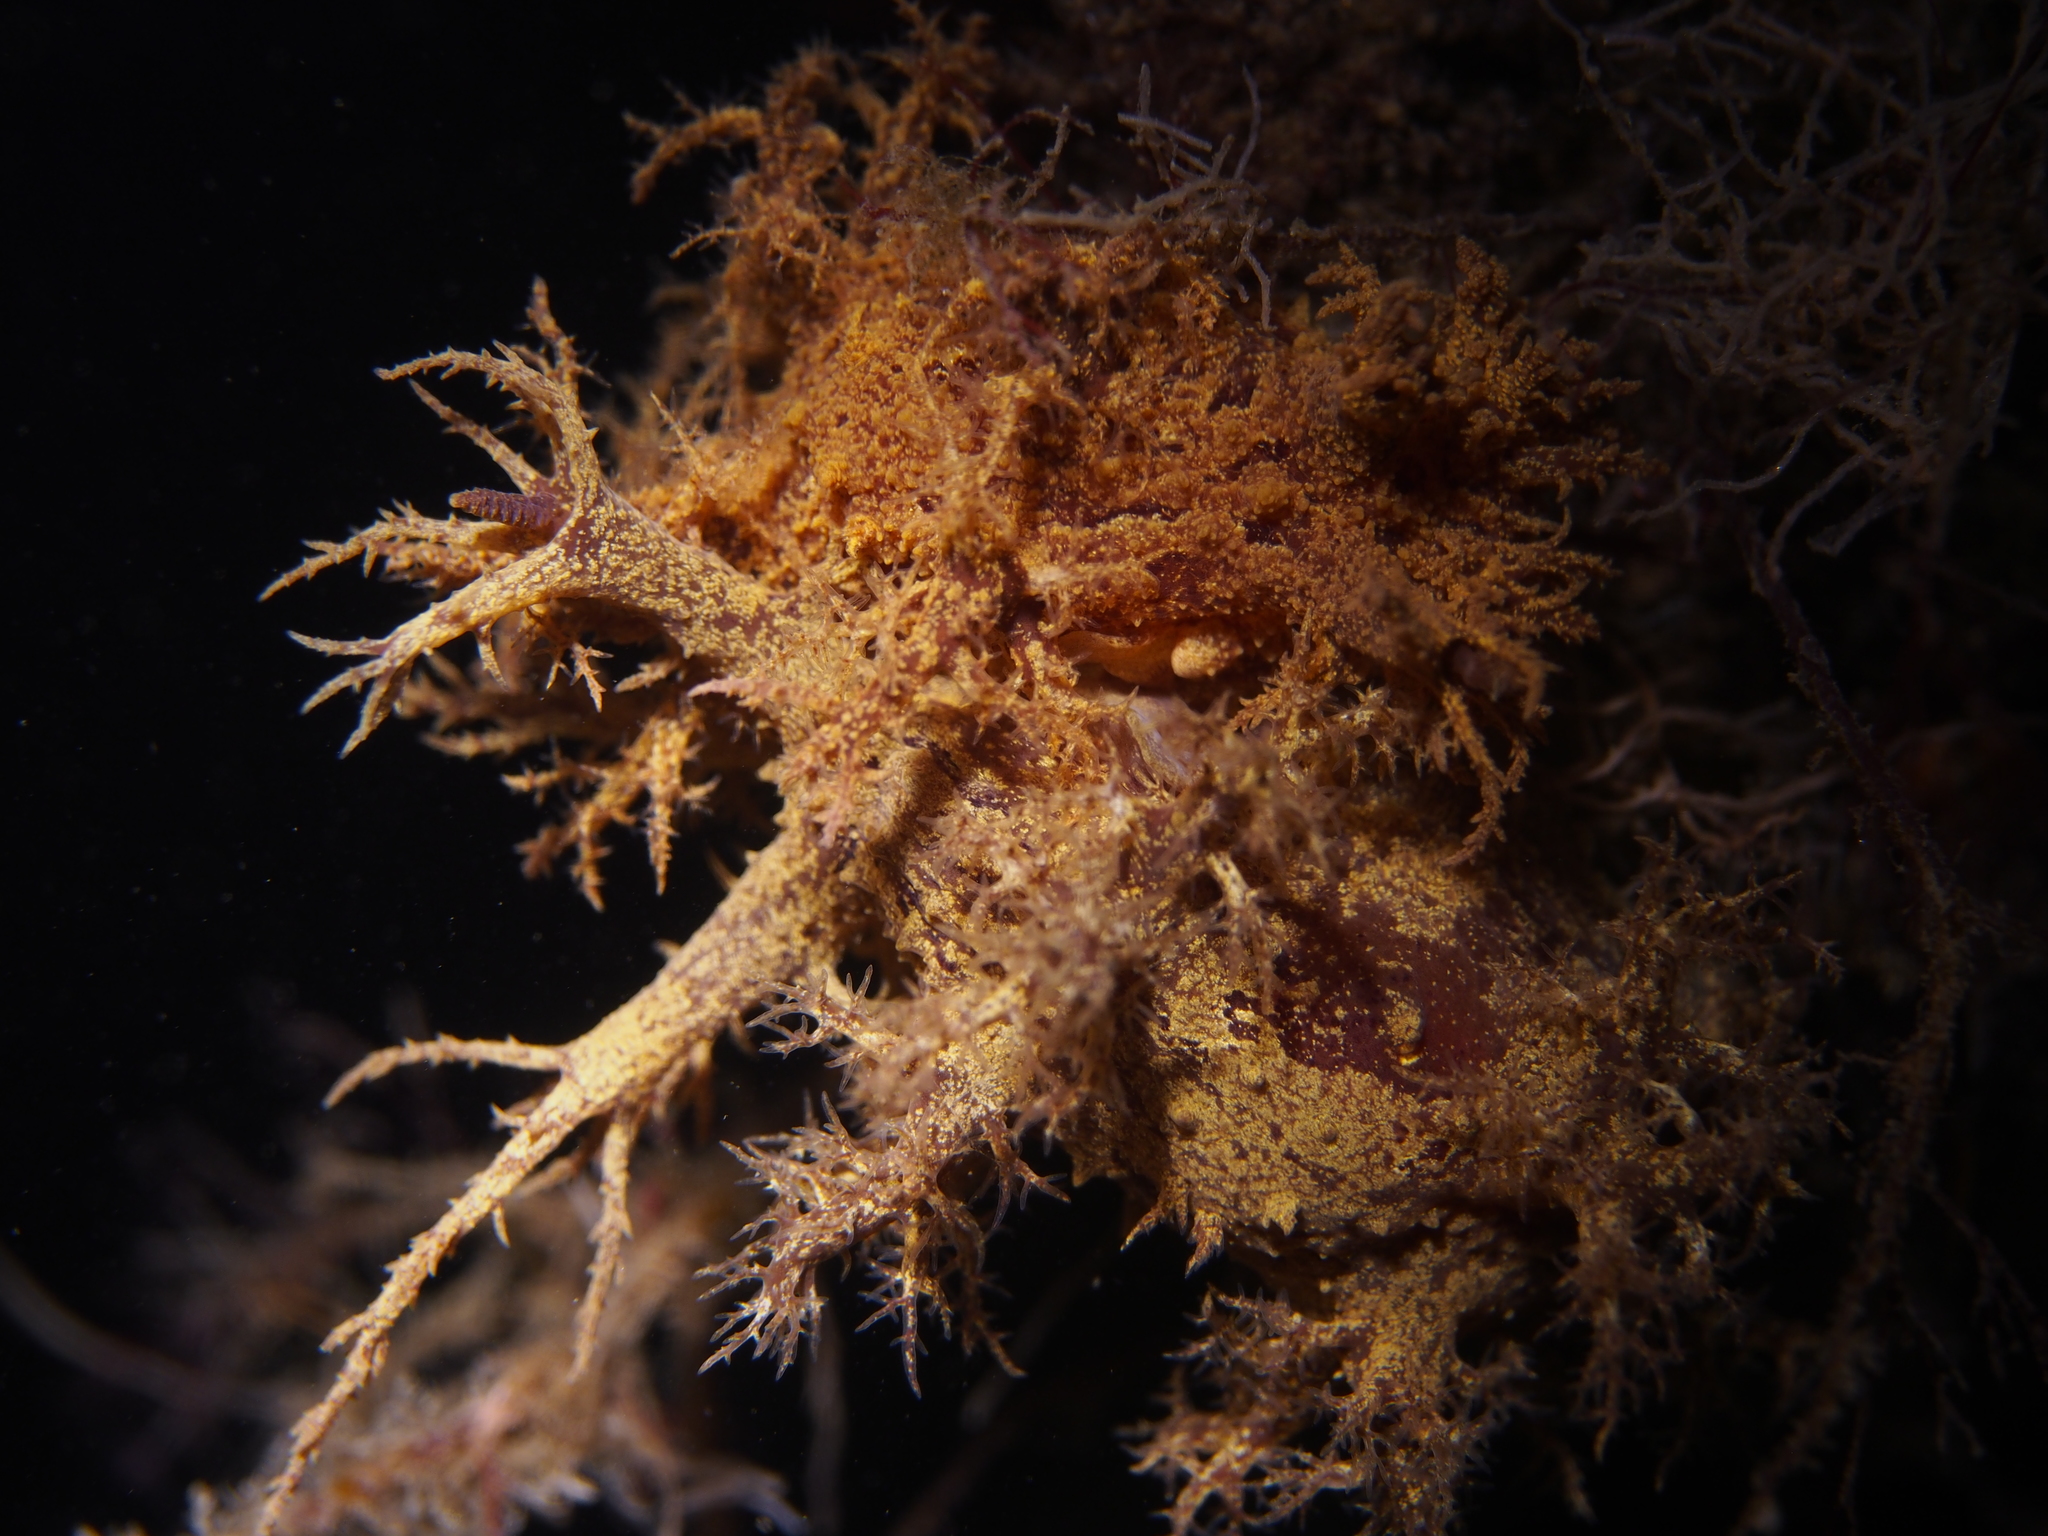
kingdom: Animalia
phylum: Mollusca
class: Gastropoda
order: Nudibranchia
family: Dendronotidae
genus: Dendronotus
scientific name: Dendronotus europaeus
